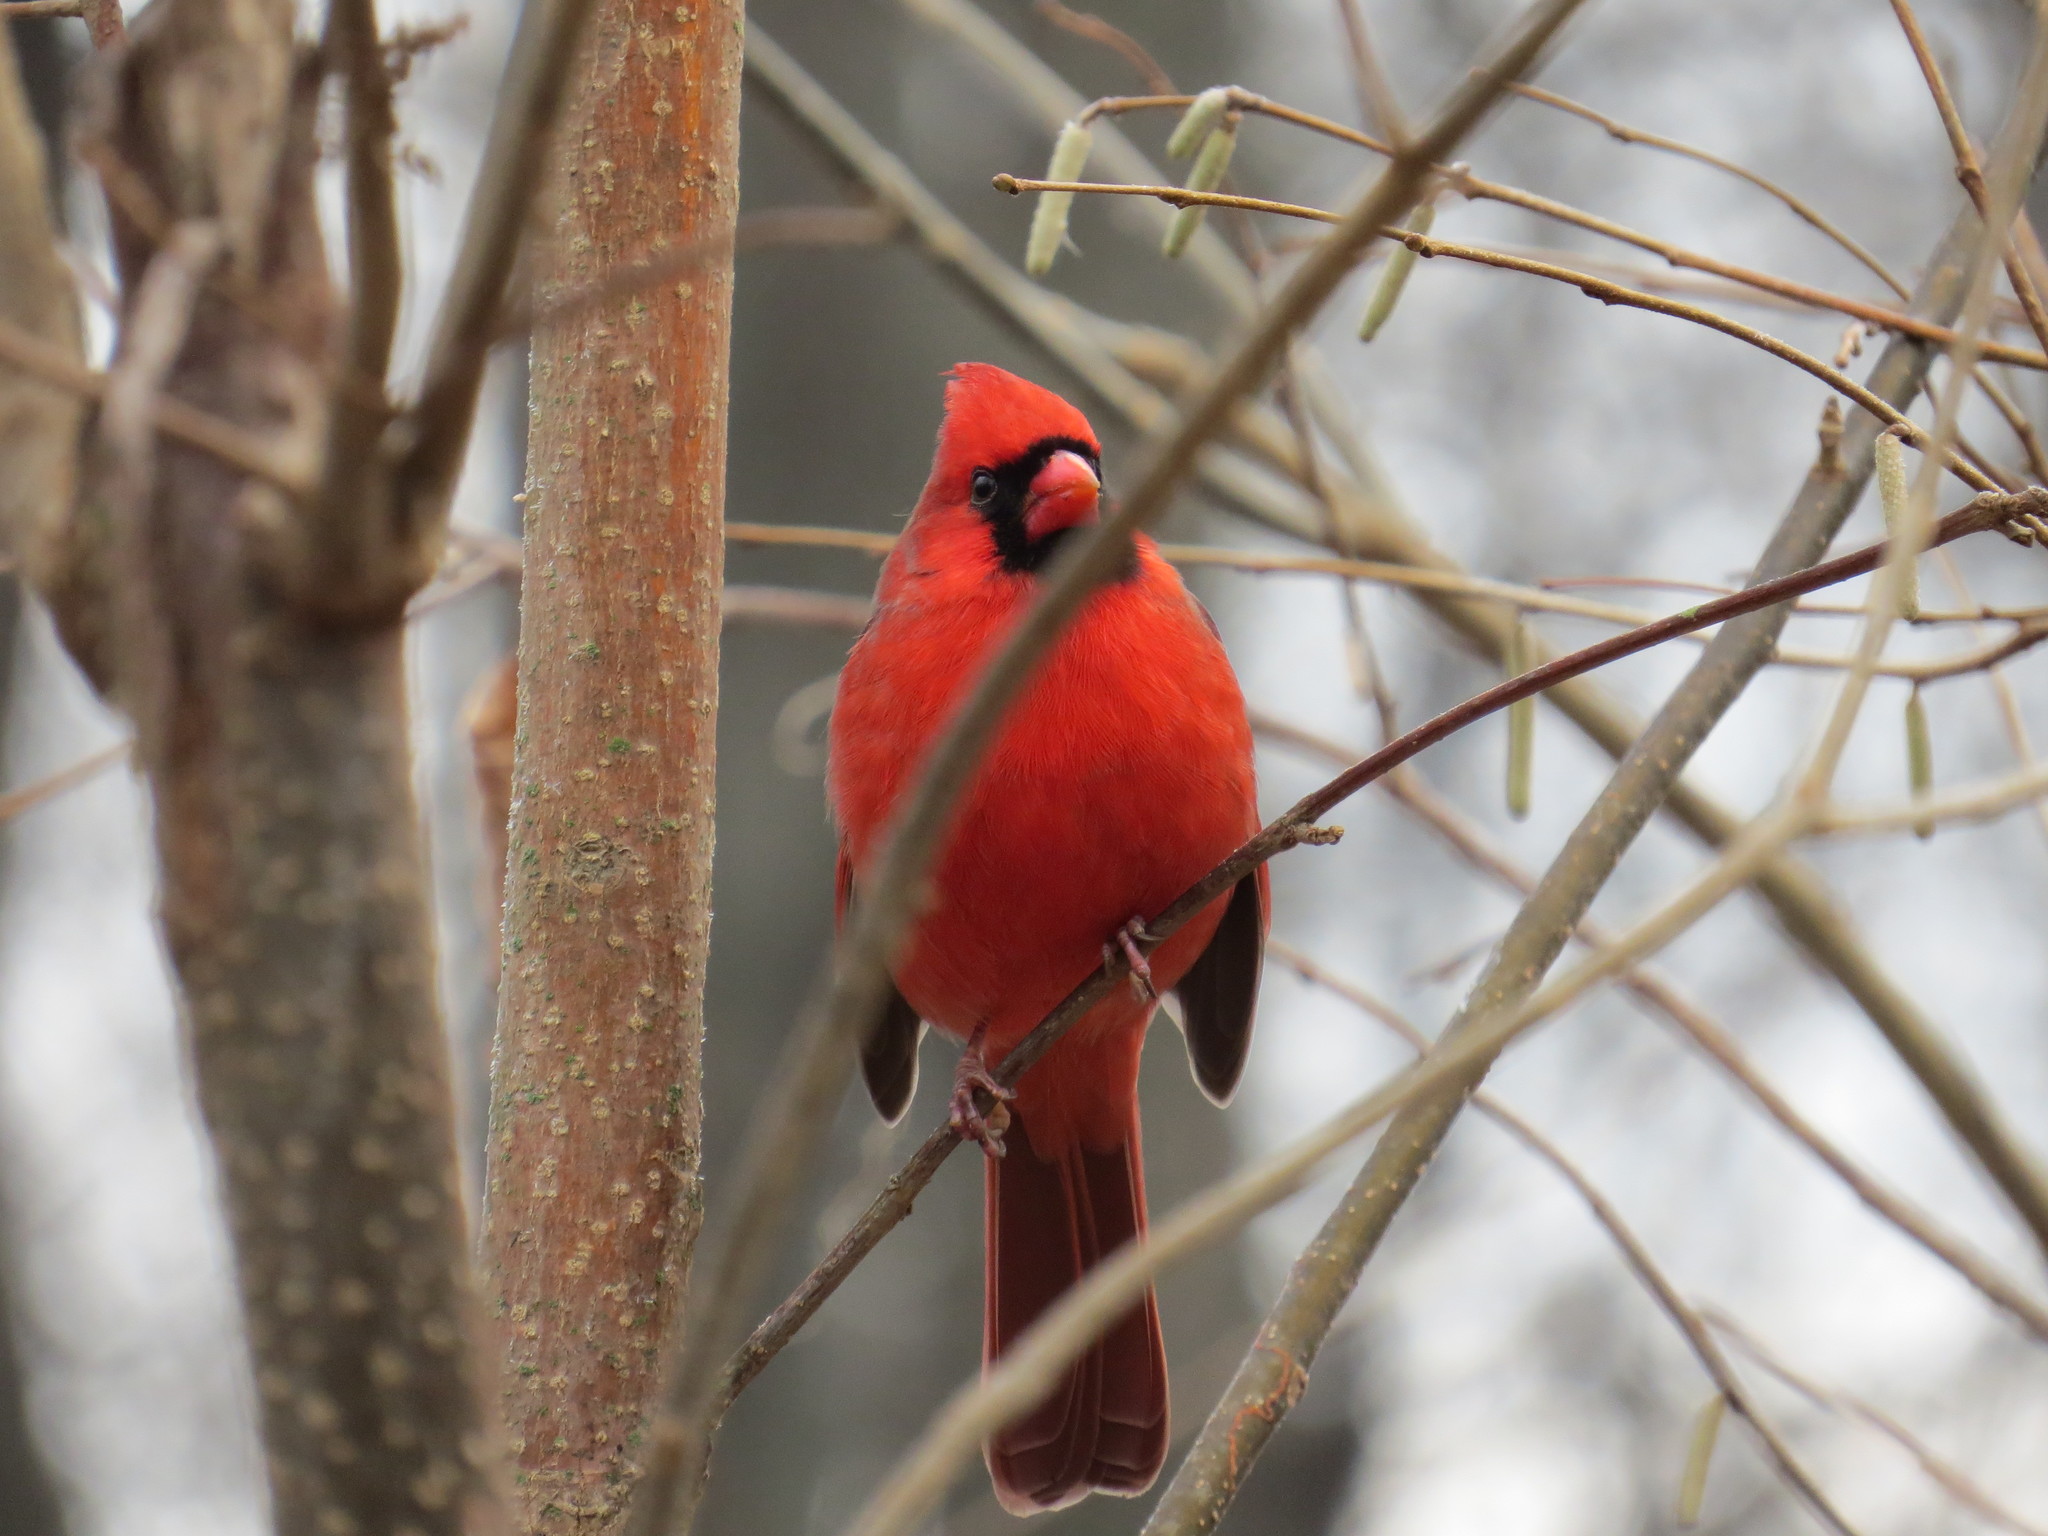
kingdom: Animalia
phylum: Chordata
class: Aves
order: Passeriformes
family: Cardinalidae
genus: Cardinalis
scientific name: Cardinalis cardinalis
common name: Northern cardinal
